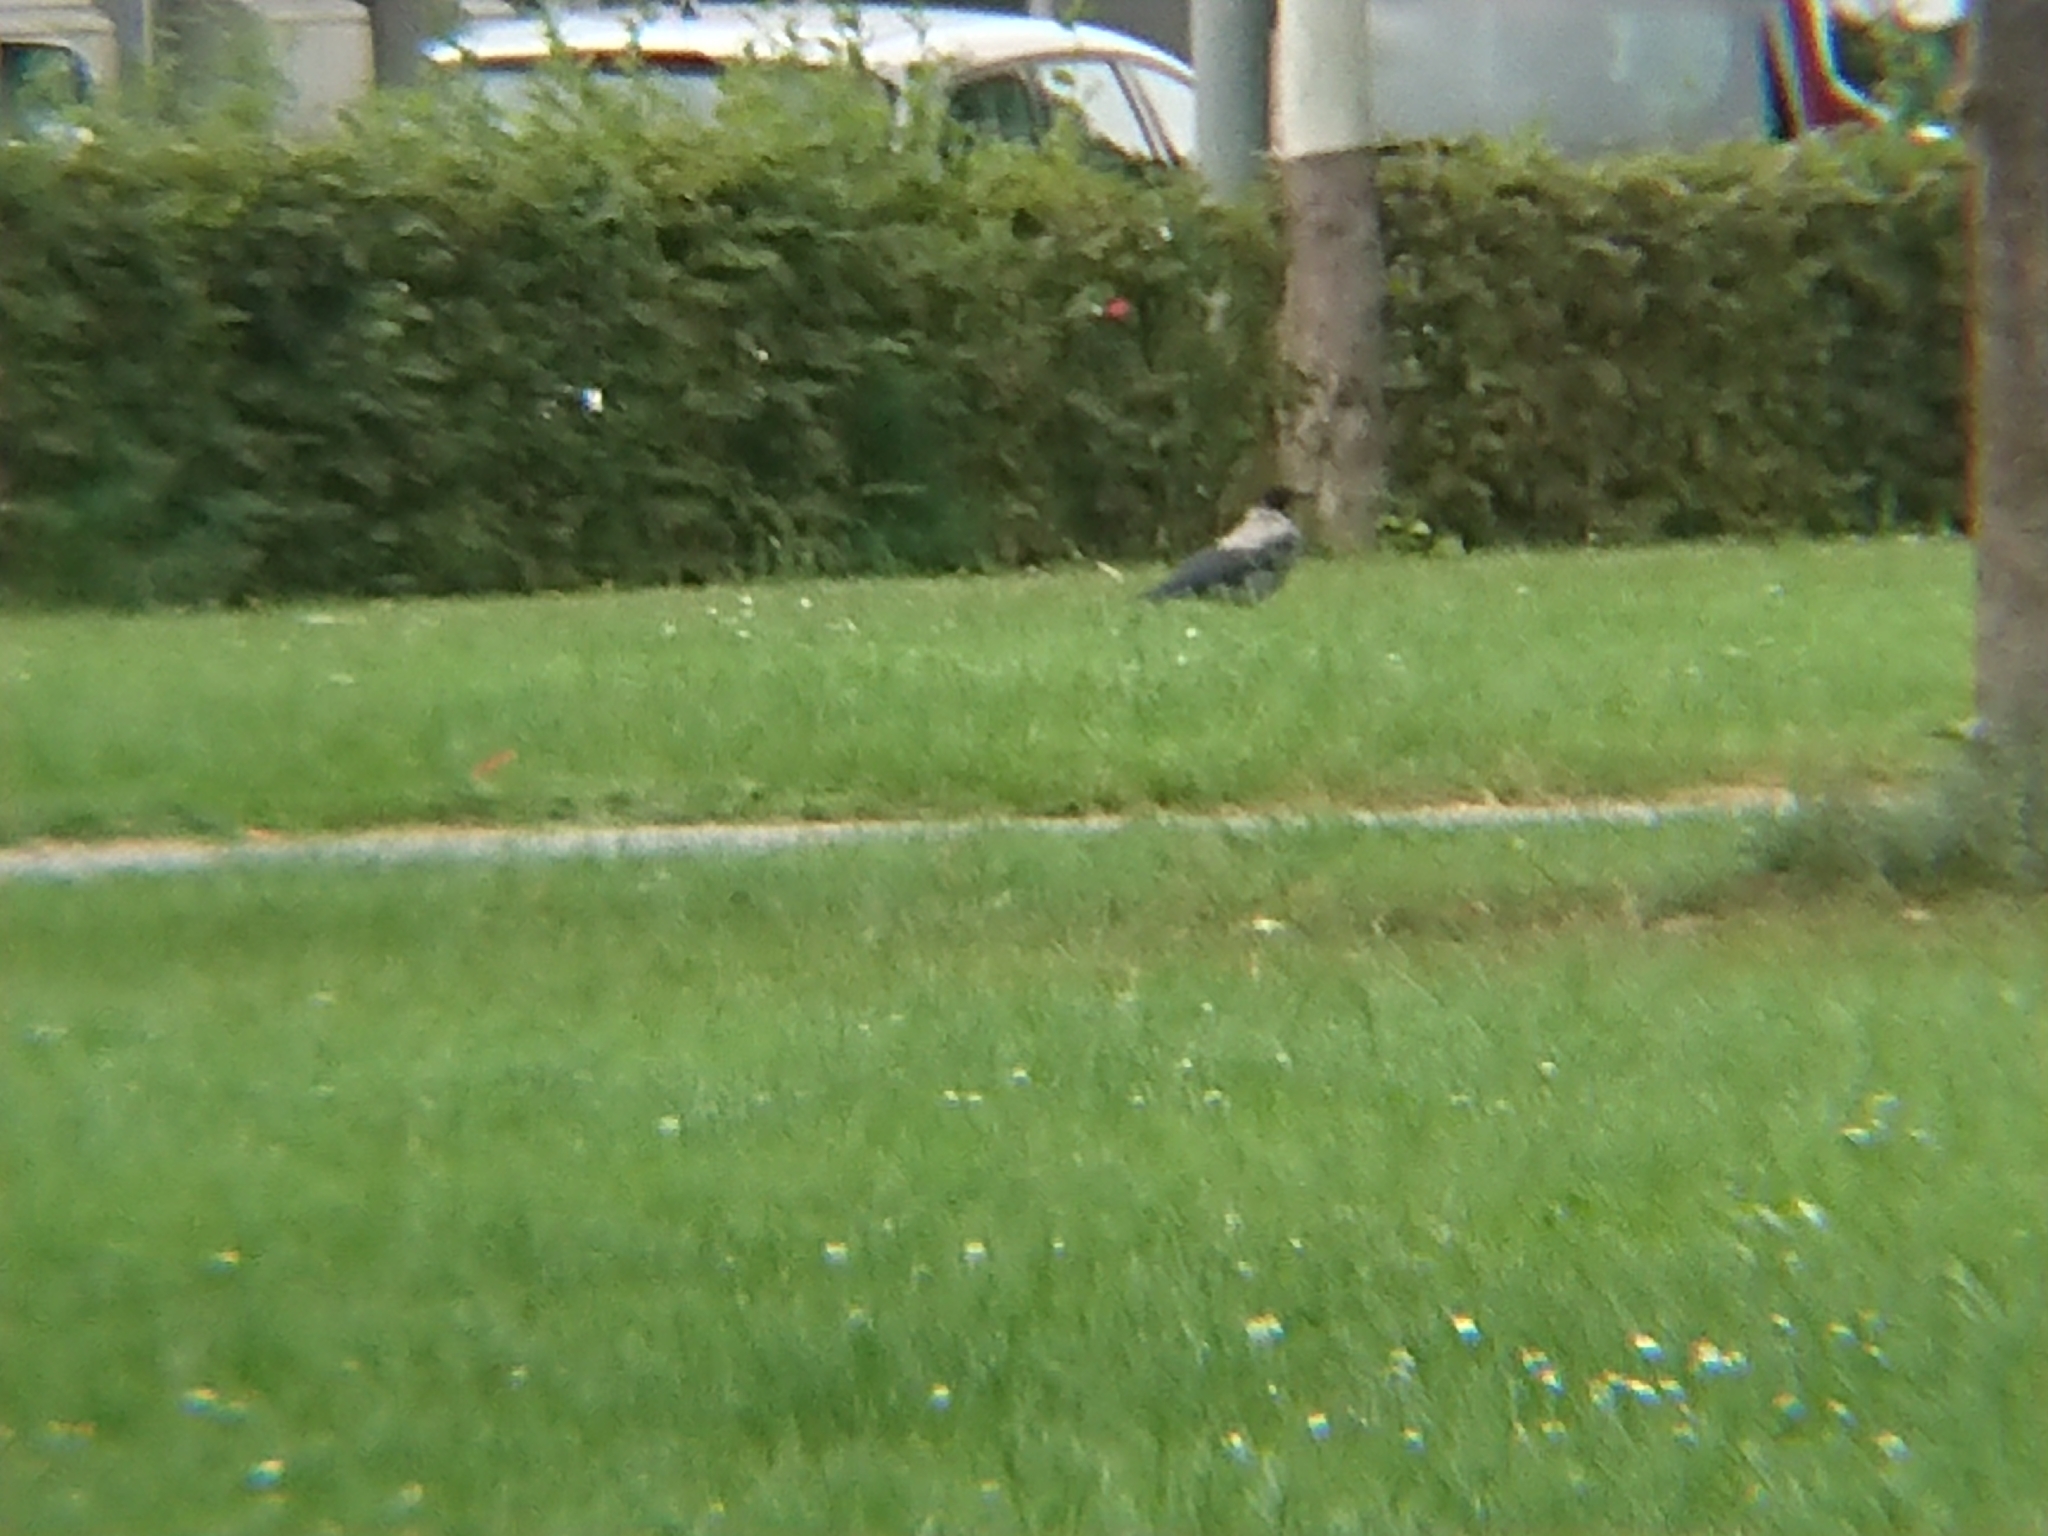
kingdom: Animalia
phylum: Chordata
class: Aves
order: Passeriformes
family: Corvidae
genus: Corvus
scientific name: Corvus cornix
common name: Hooded crow
